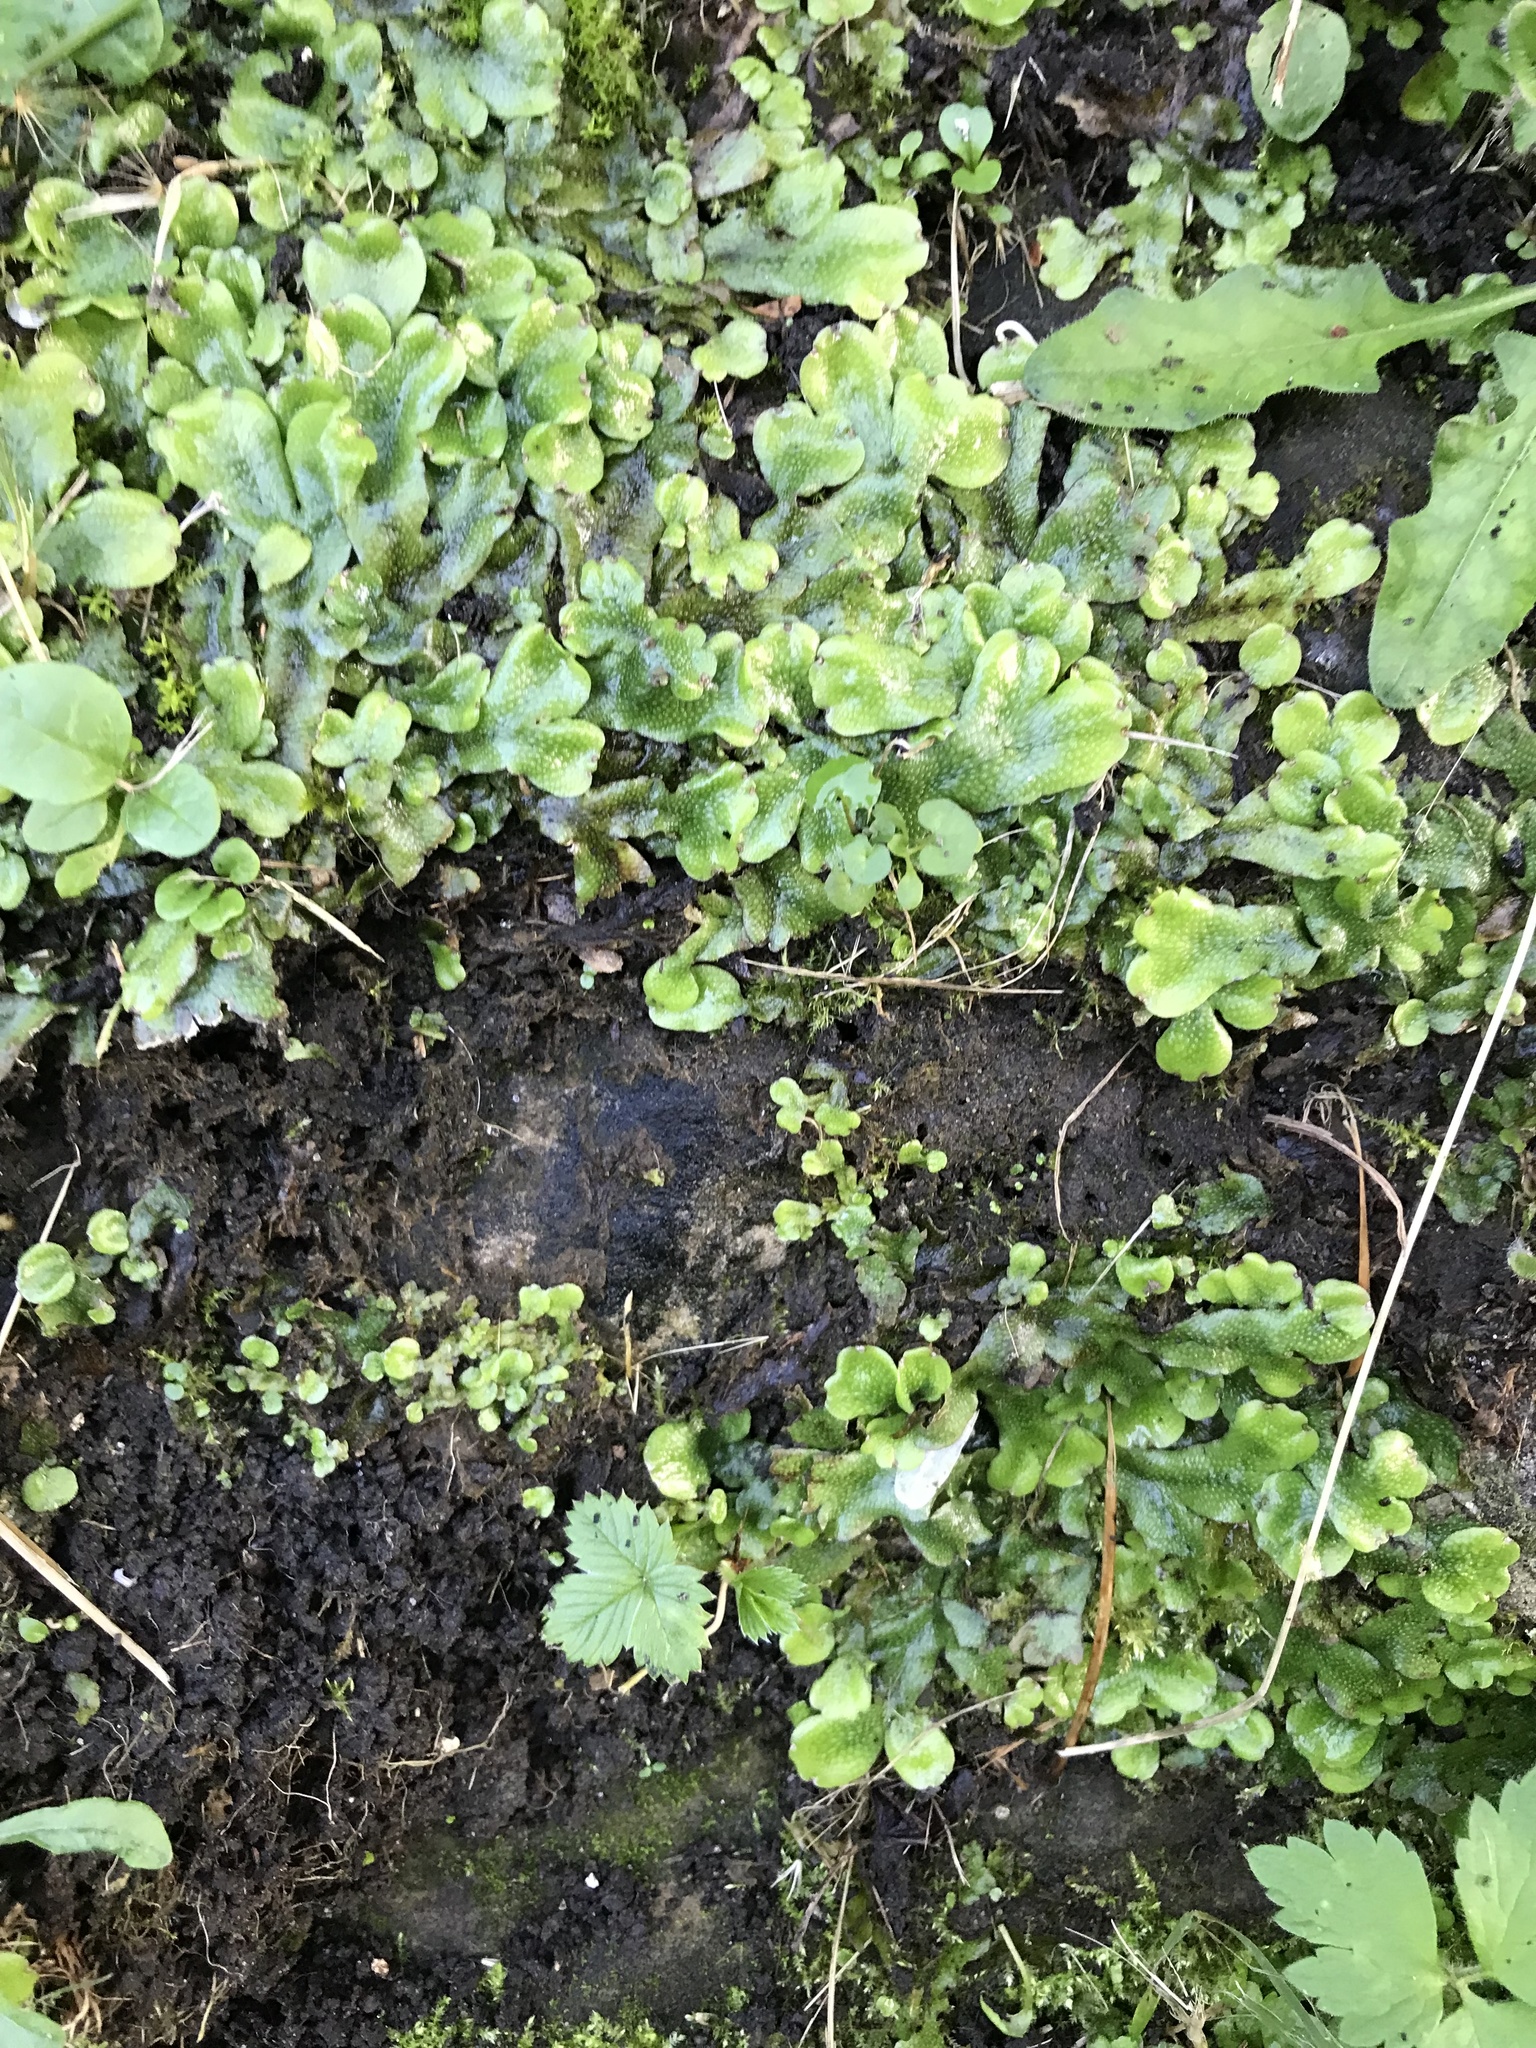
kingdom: Plantae
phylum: Marchantiophyta
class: Marchantiopsida
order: Marchantiales
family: Conocephalaceae
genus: Conocephalum
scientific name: Conocephalum conicum
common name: Great scented liverwort
